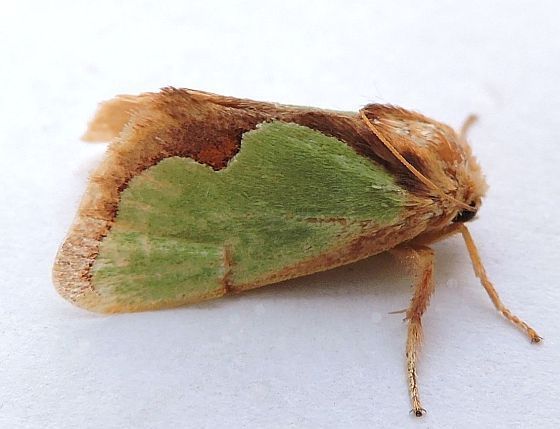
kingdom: Animalia
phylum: Arthropoda
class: Insecta
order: Lepidoptera
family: Limacodidae
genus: Euclea
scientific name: Euclea incisa
